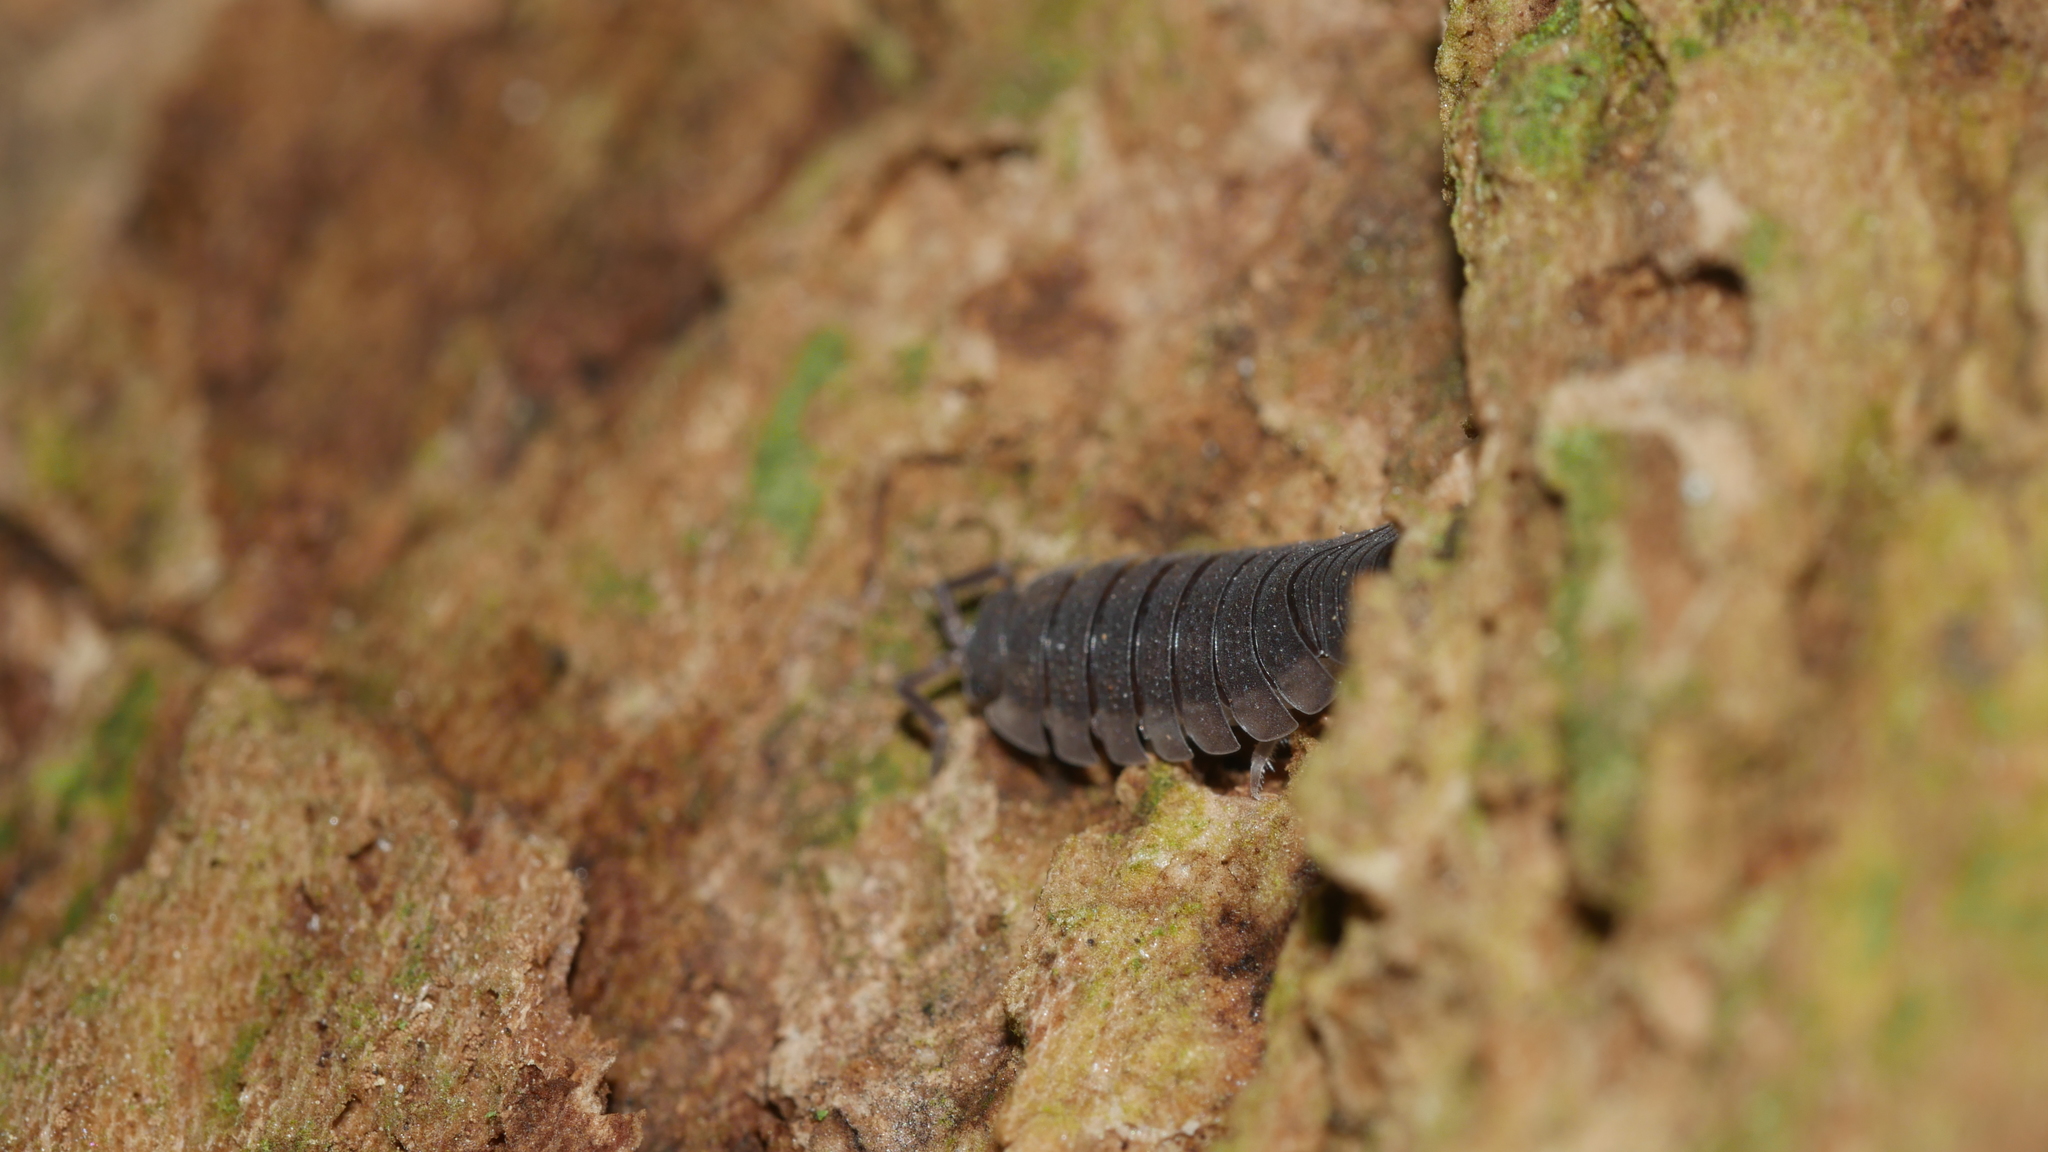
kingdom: Animalia
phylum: Arthropoda
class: Malacostraca
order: Isopoda
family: Porcellionidae
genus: Porcellio
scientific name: Porcellio scaber
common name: Common rough woodlouse
